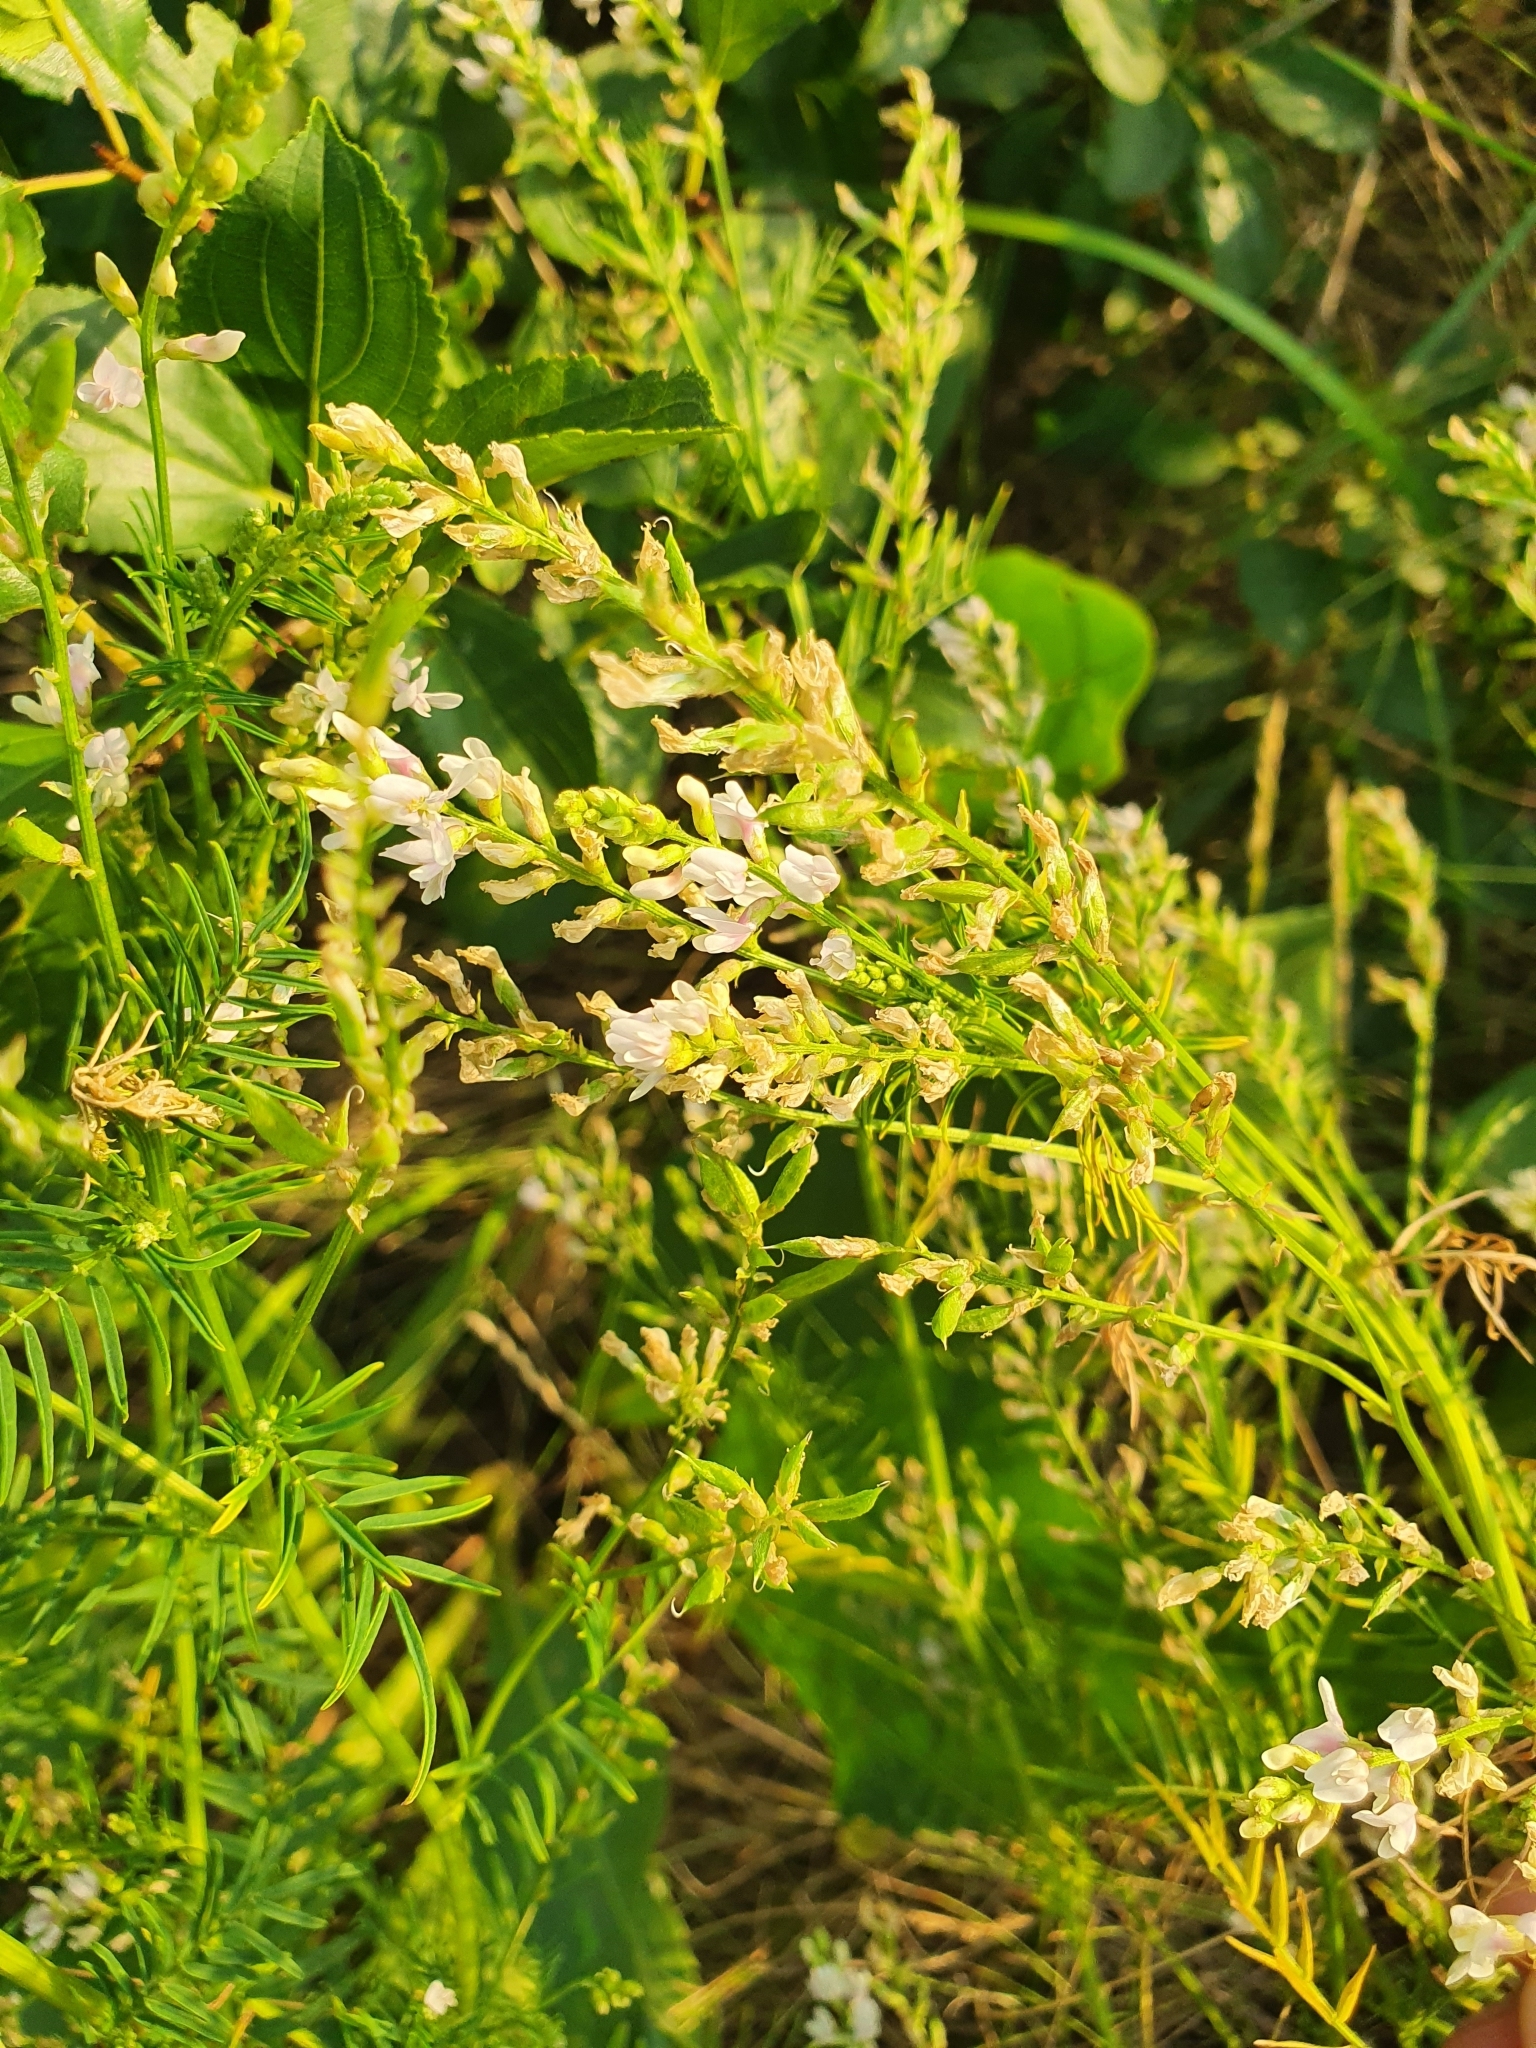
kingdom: Plantae
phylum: Tracheophyta
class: Magnoliopsida
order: Fabales
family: Fabaceae
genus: Astragalus
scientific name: Astragalus sulcatus
